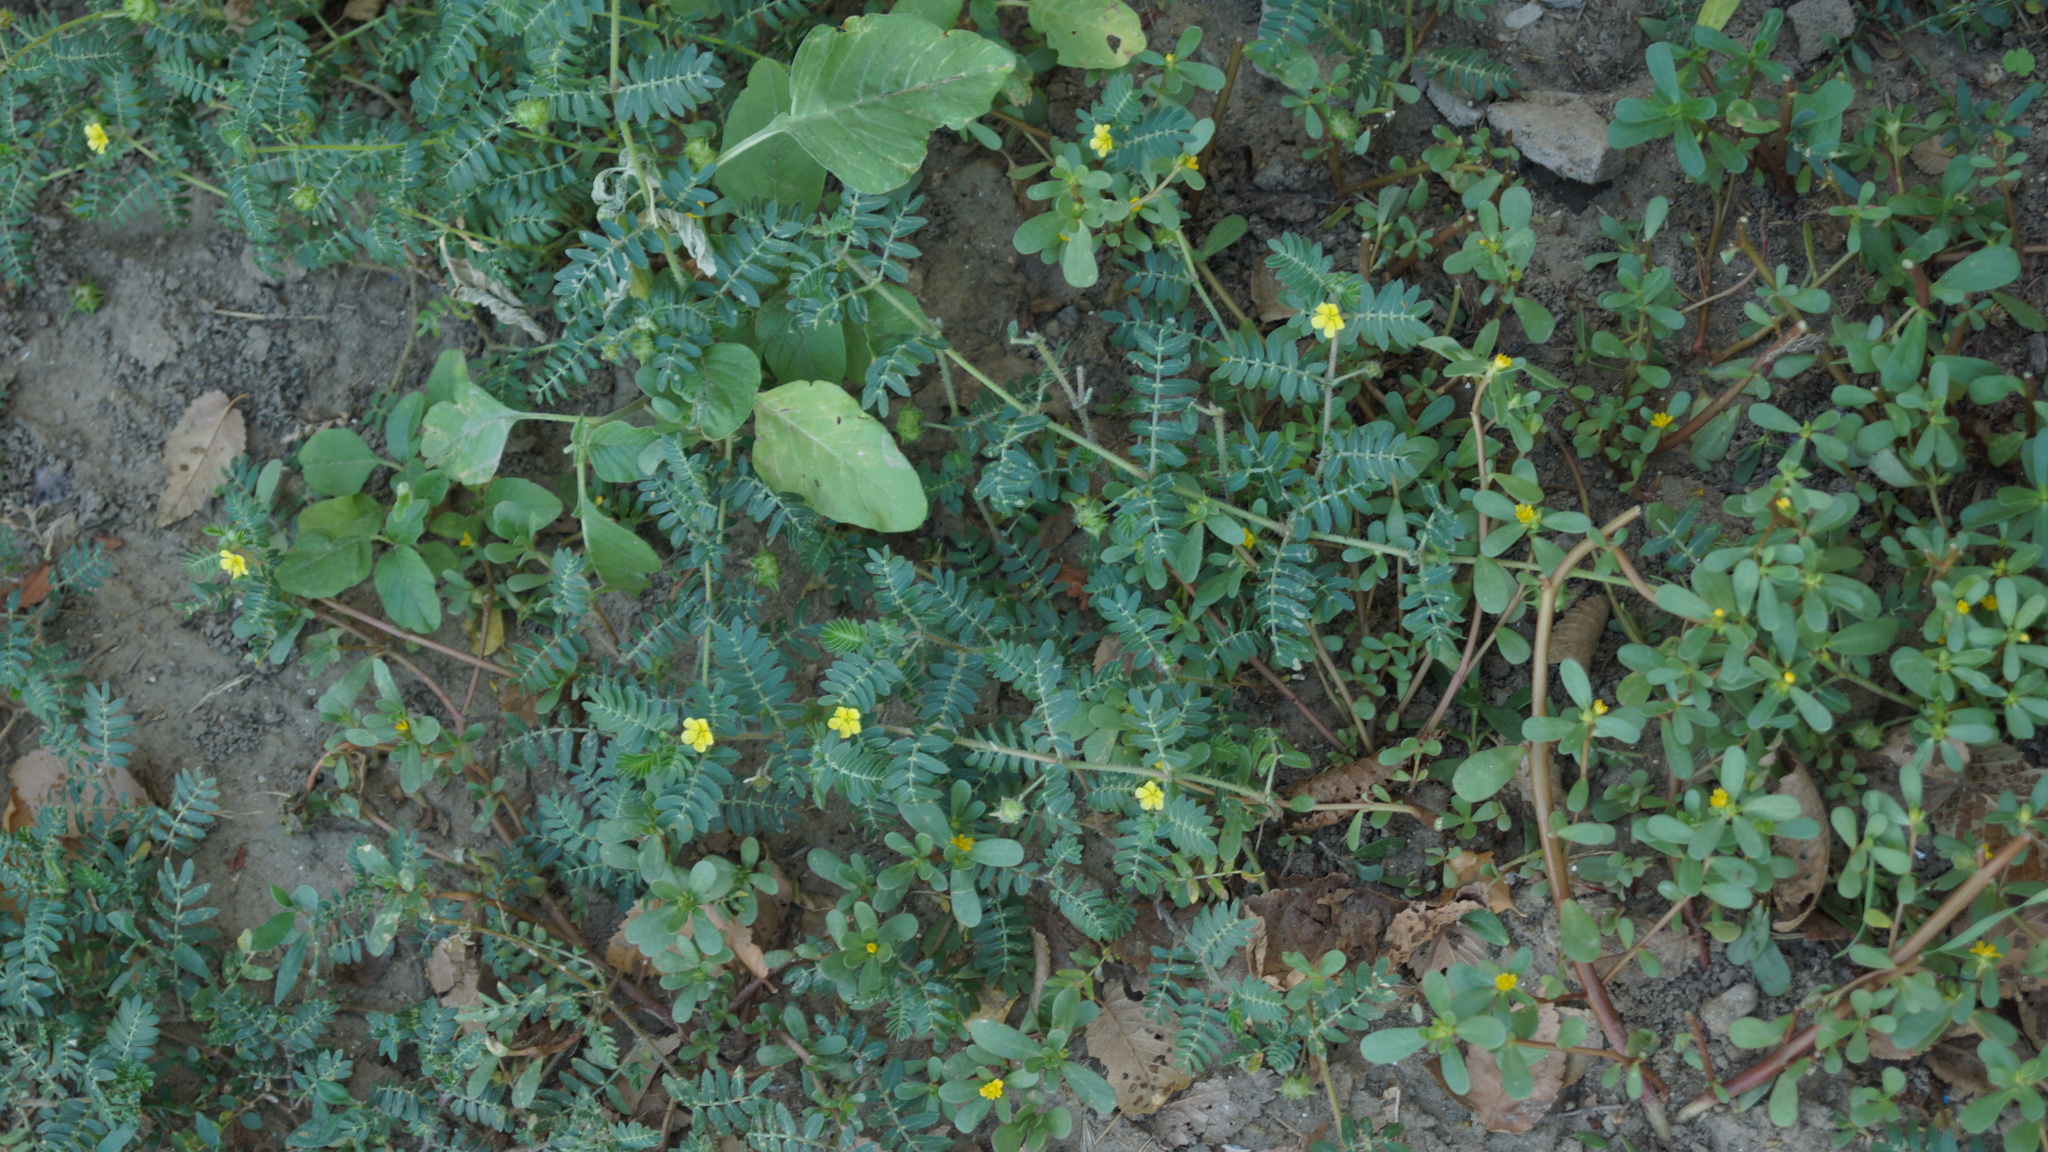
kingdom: Plantae
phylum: Tracheophyta
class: Magnoliopsida
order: Zygophyllales
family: Zygophyllaceae
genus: Tribulus
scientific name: Tribulus terrestris
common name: Puncturevine
